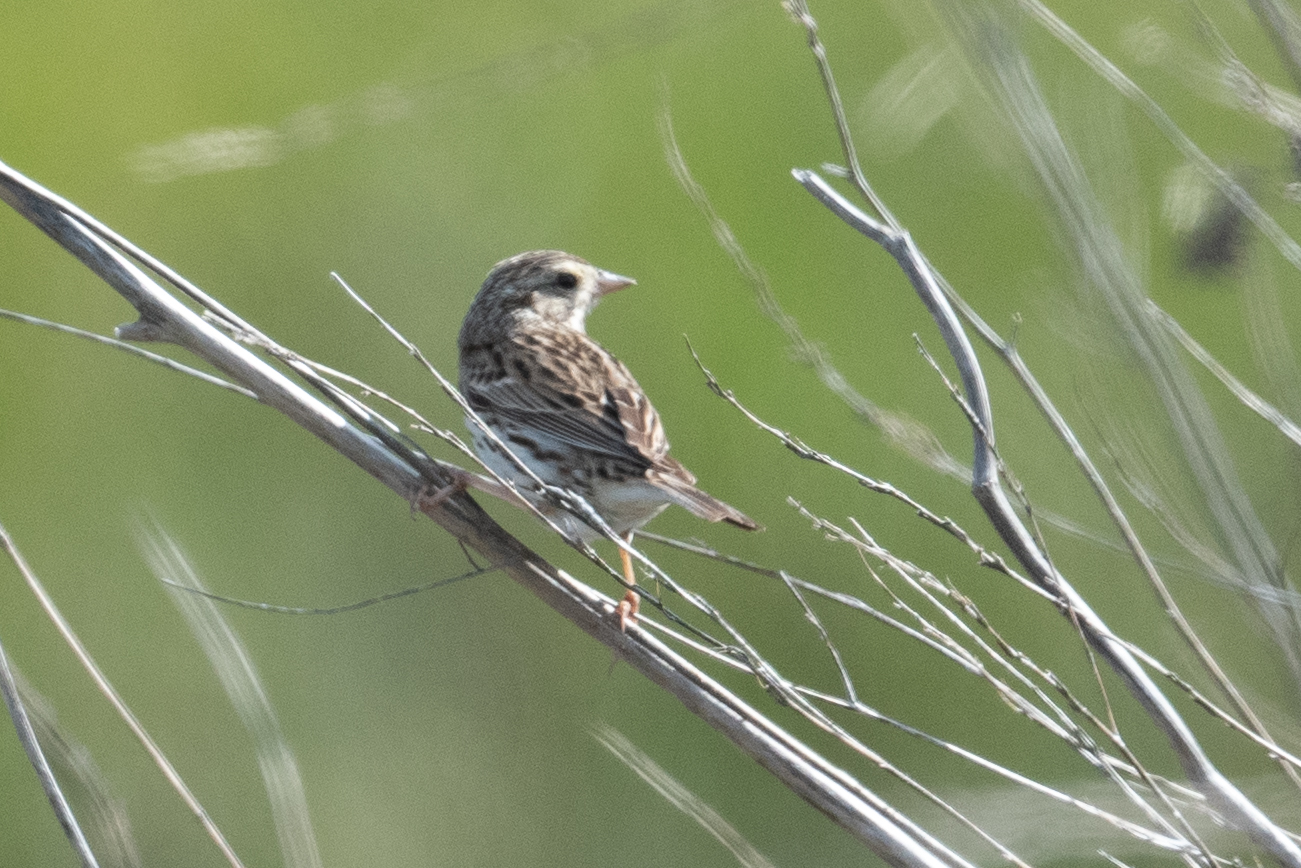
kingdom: Animalia
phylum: Chordata
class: Aves
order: Passeriformes
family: Passerellidae
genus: Passerculus
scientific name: Passerculus sandwichensis
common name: Savannah sparrow
